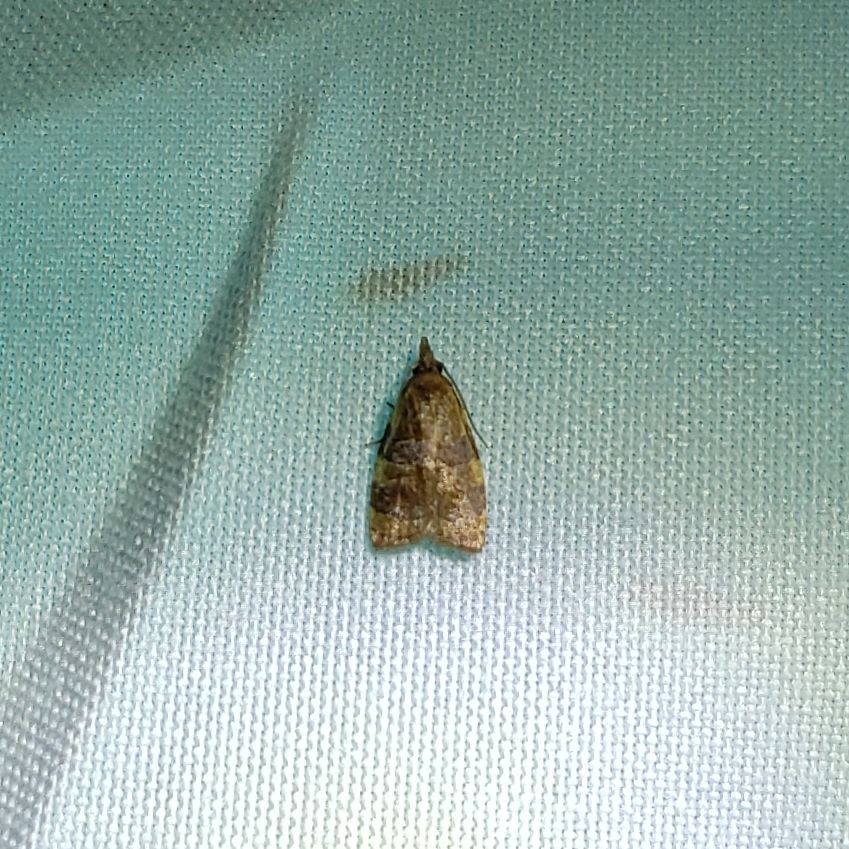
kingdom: Animalia
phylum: Arthropoda
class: Insecta
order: Lepidoptera
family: Tortricidae
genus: Cenopis
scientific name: Cenopis diluticostana
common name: Spring dead-leaf roller moth
